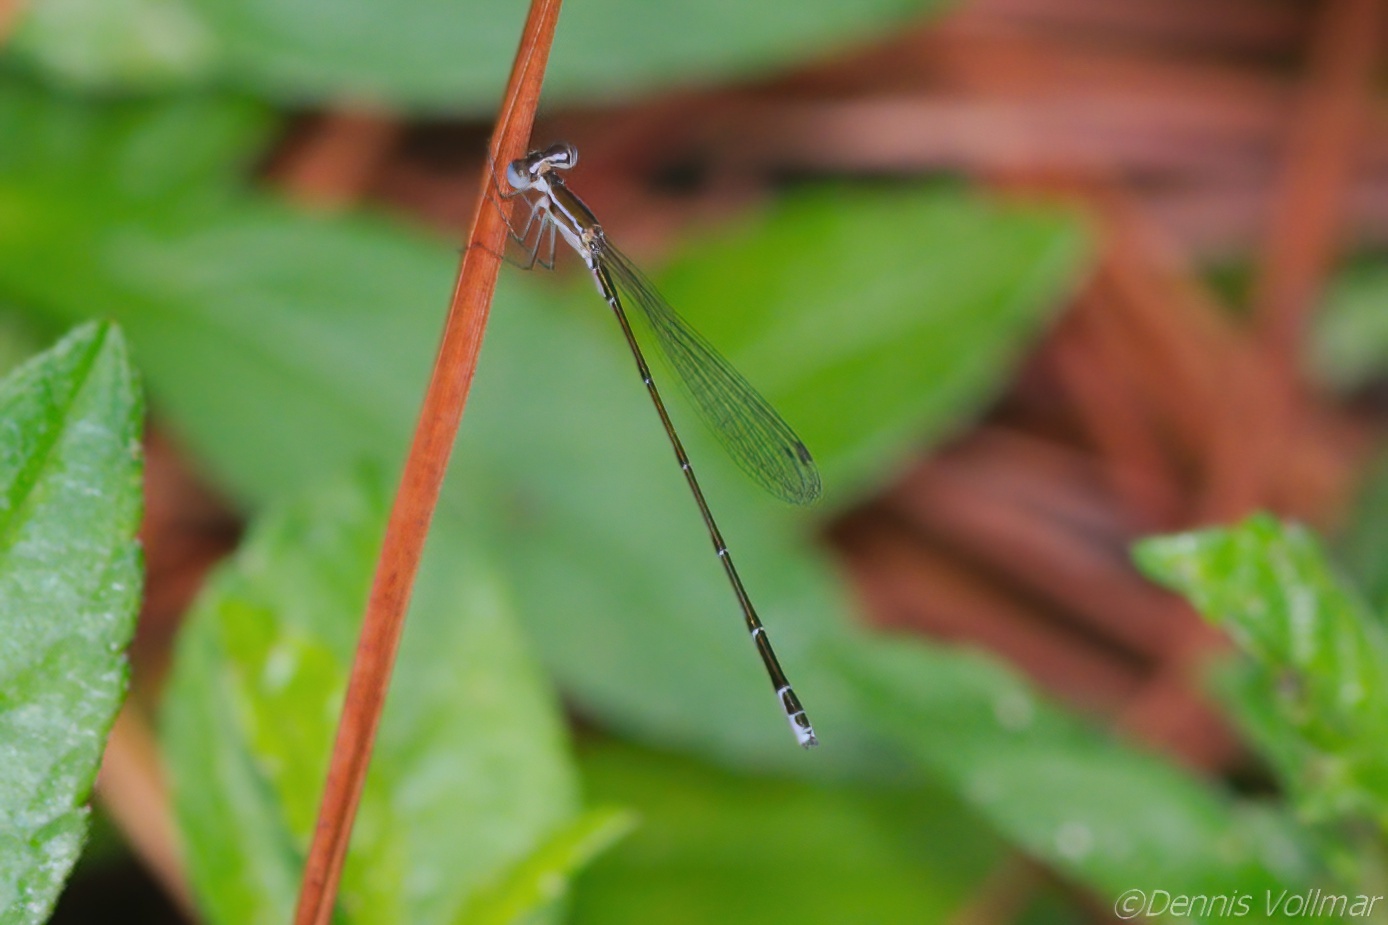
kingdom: Animalia
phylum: Arthropoda
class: Insecta
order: Odonata
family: Coenagrionidae
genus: Nehalennia
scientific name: Nehalennia pallidula
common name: Everglades sprite
